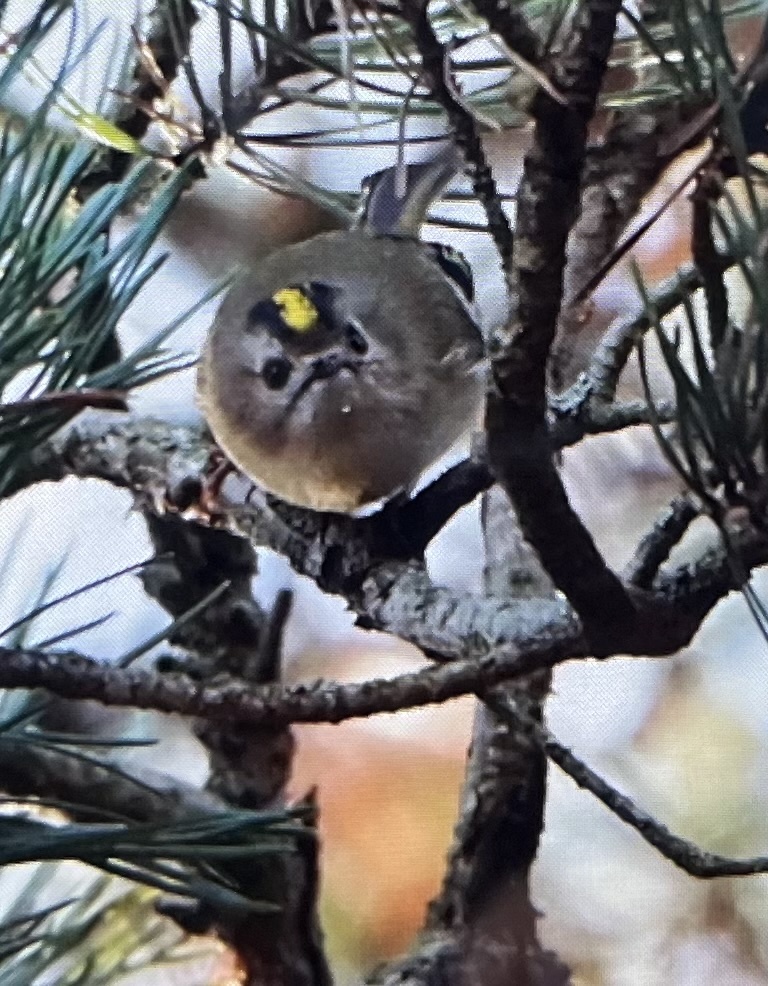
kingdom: Animalia
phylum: Chordata
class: Aves
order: Passeriformes
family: Regulidae
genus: Regulus
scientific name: Regulus regulus
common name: Goldcrest
